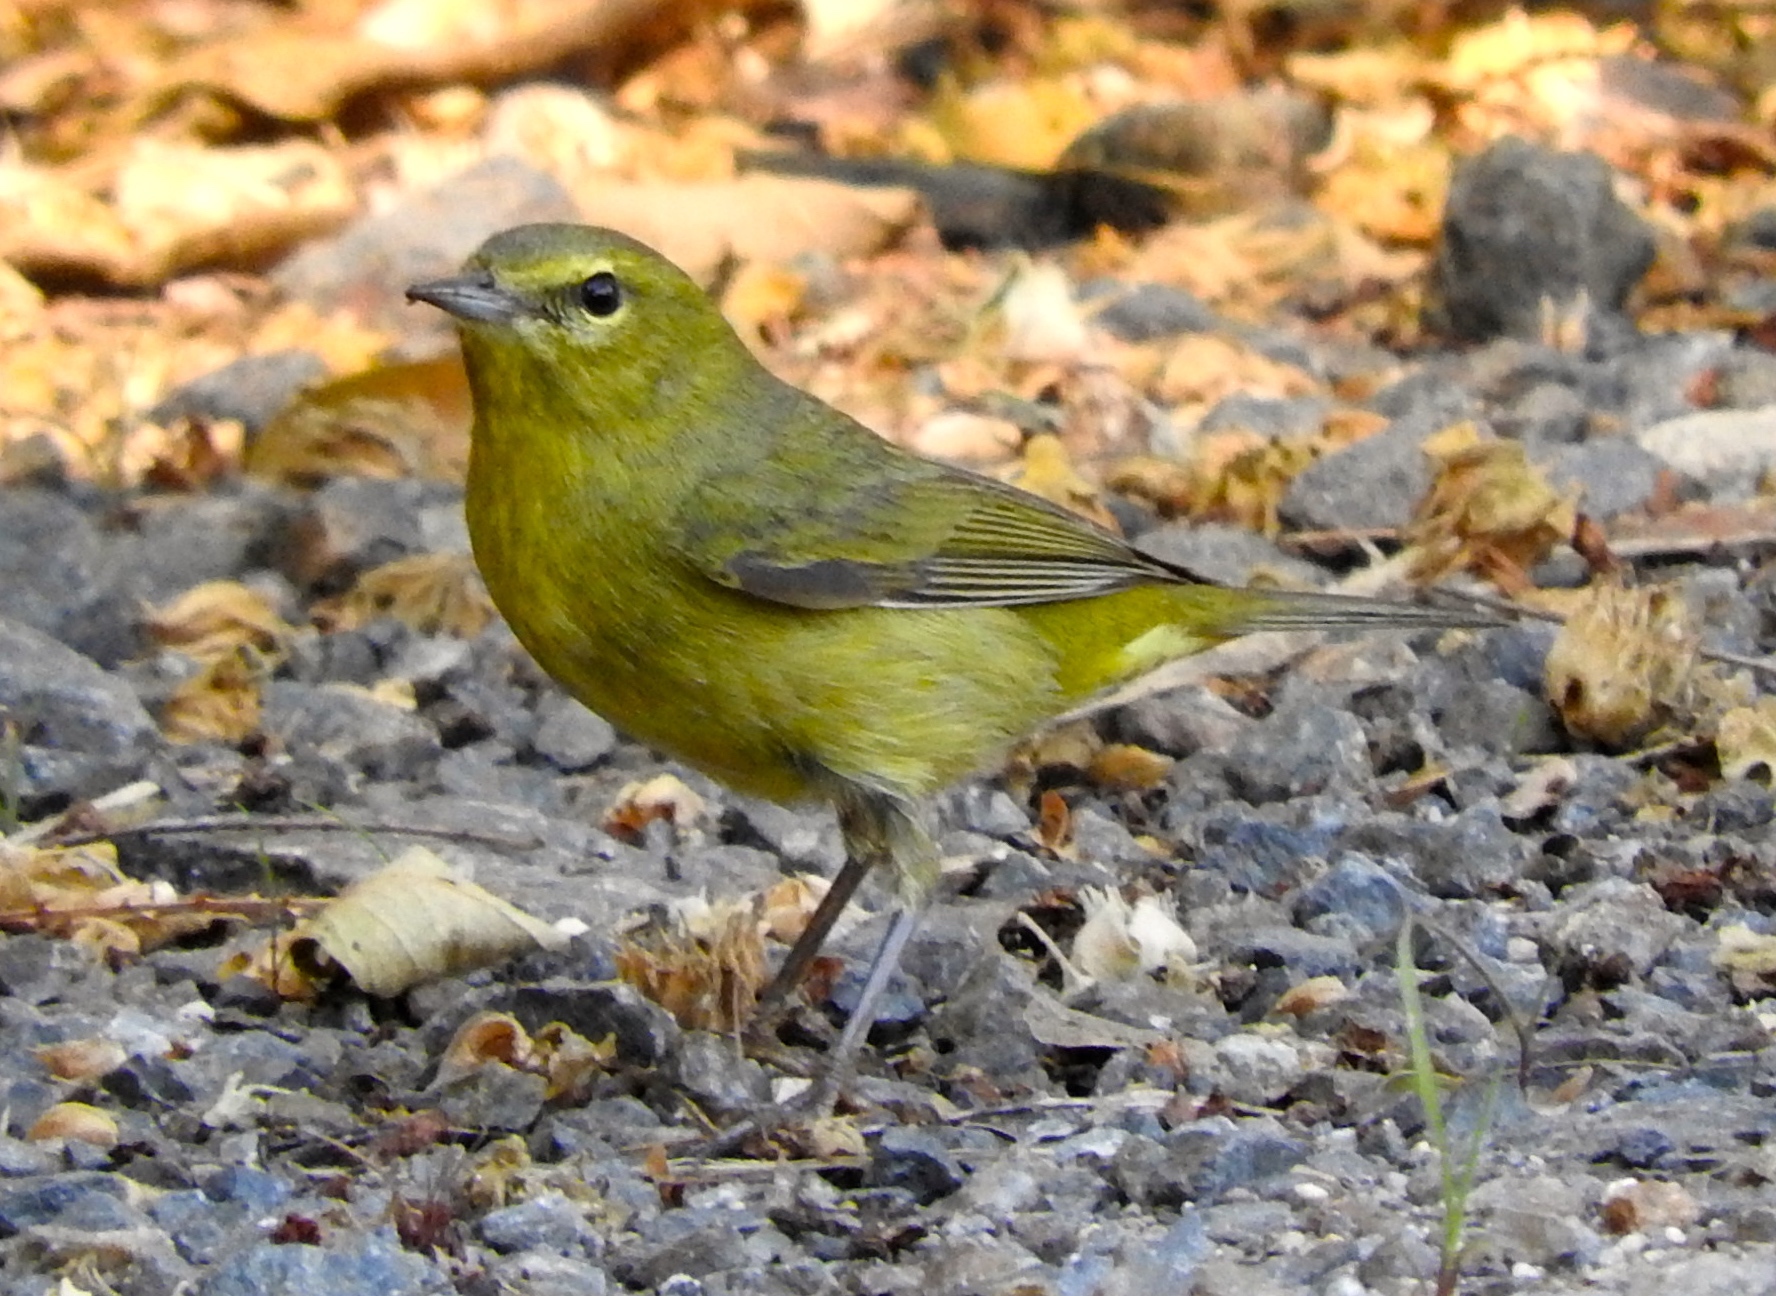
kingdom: Animalia
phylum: Chordata
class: Aves
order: Passeriformes
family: Parulidae
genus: Leiothlypis
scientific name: Leiothlypis celata
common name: Orange-crowned warbler
